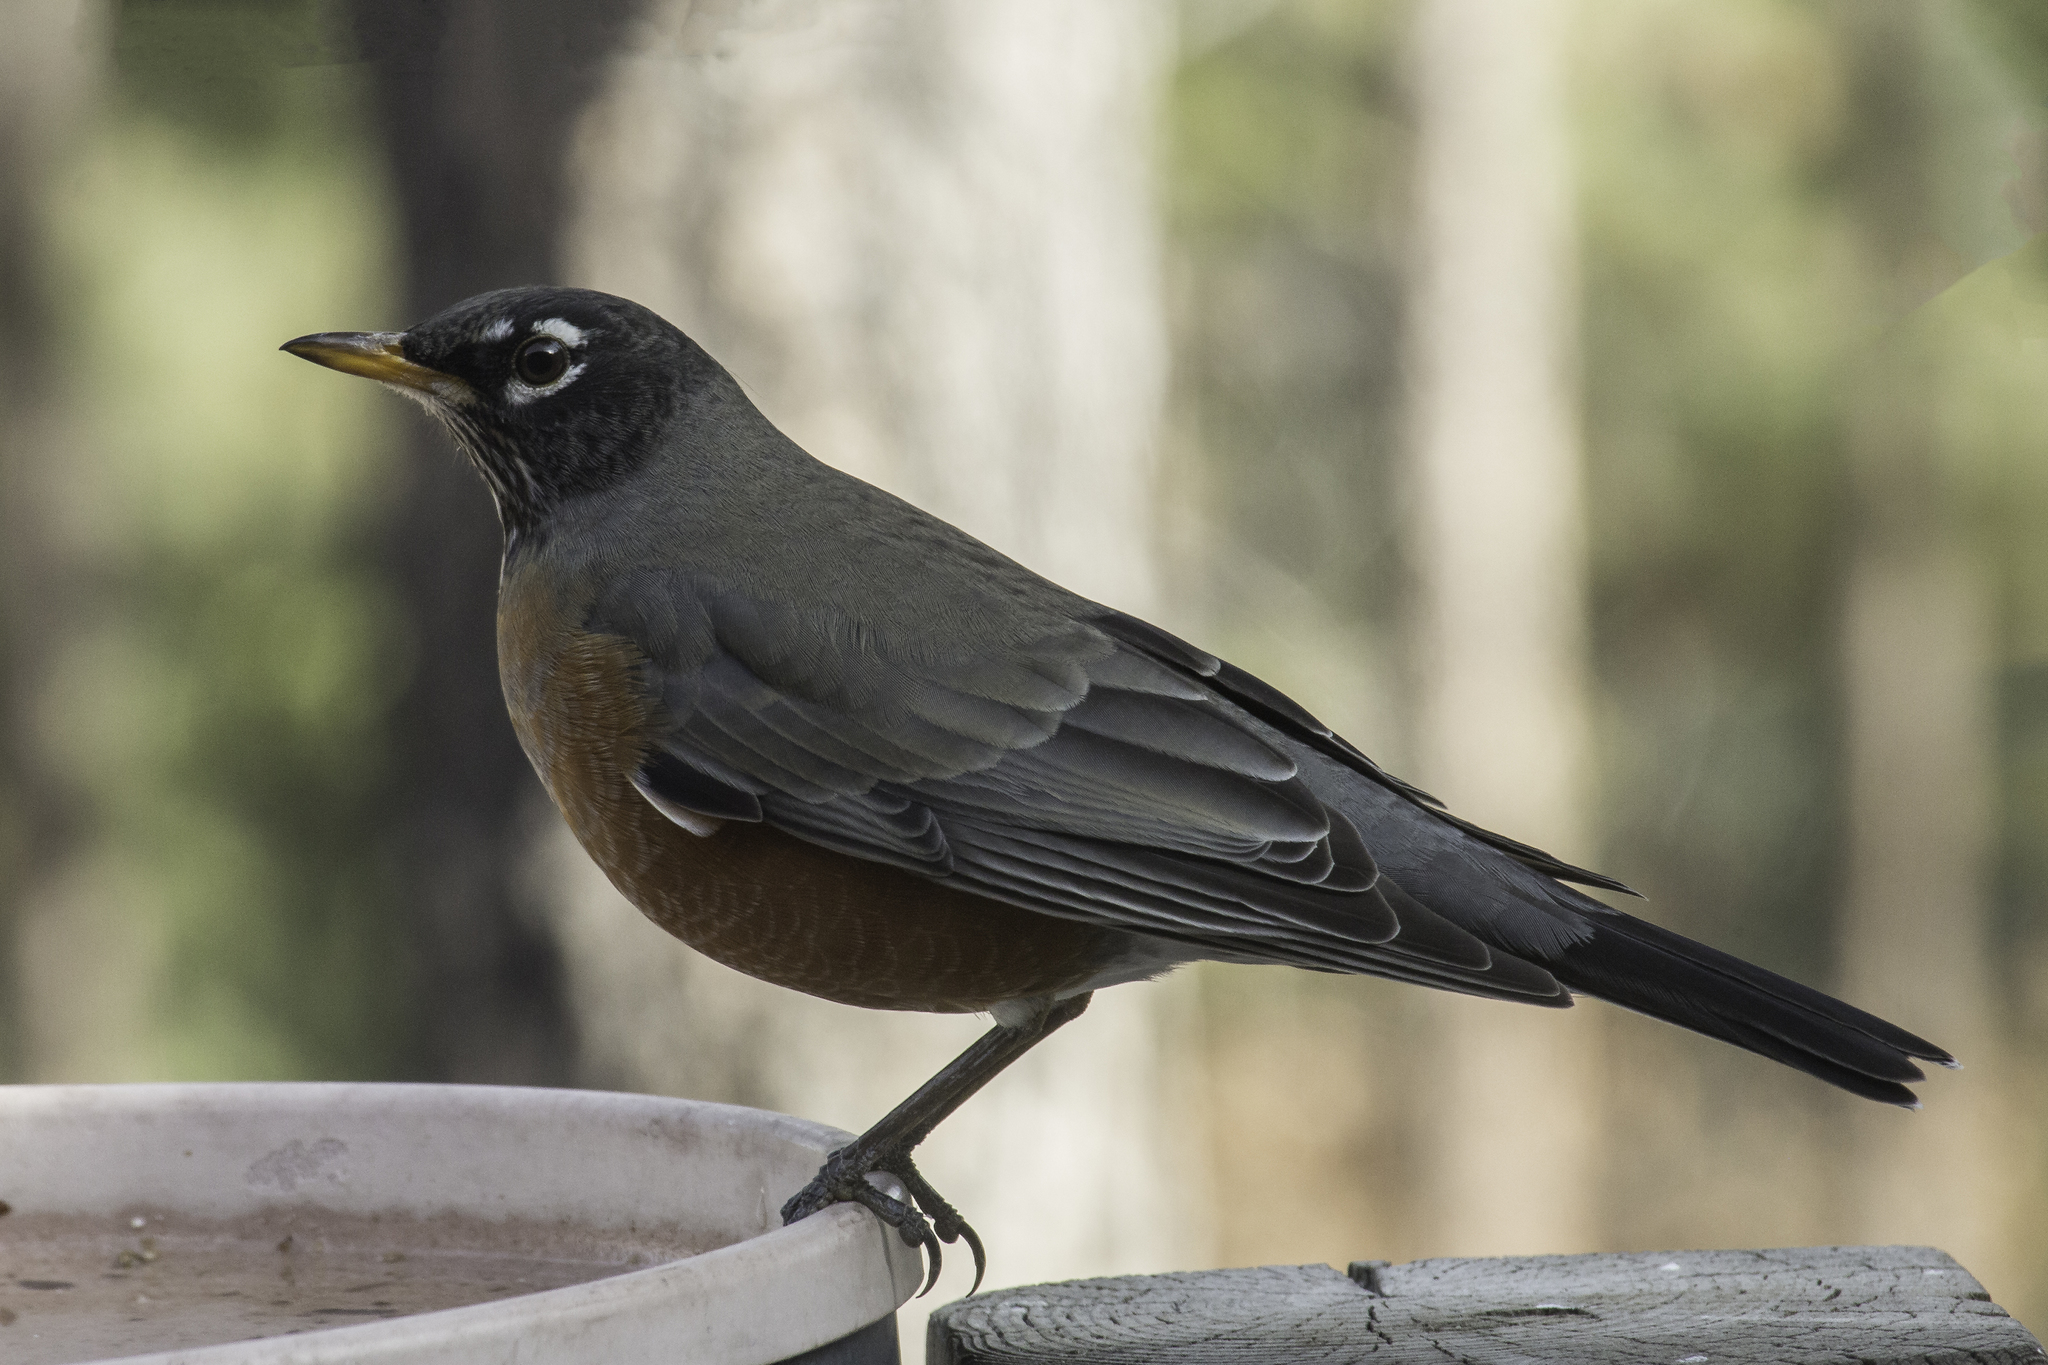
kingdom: Animalia
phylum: Chordata
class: Aves
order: Passeriformes
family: Turdidae
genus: Turdus
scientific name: Turdus migratorius
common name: American robin
